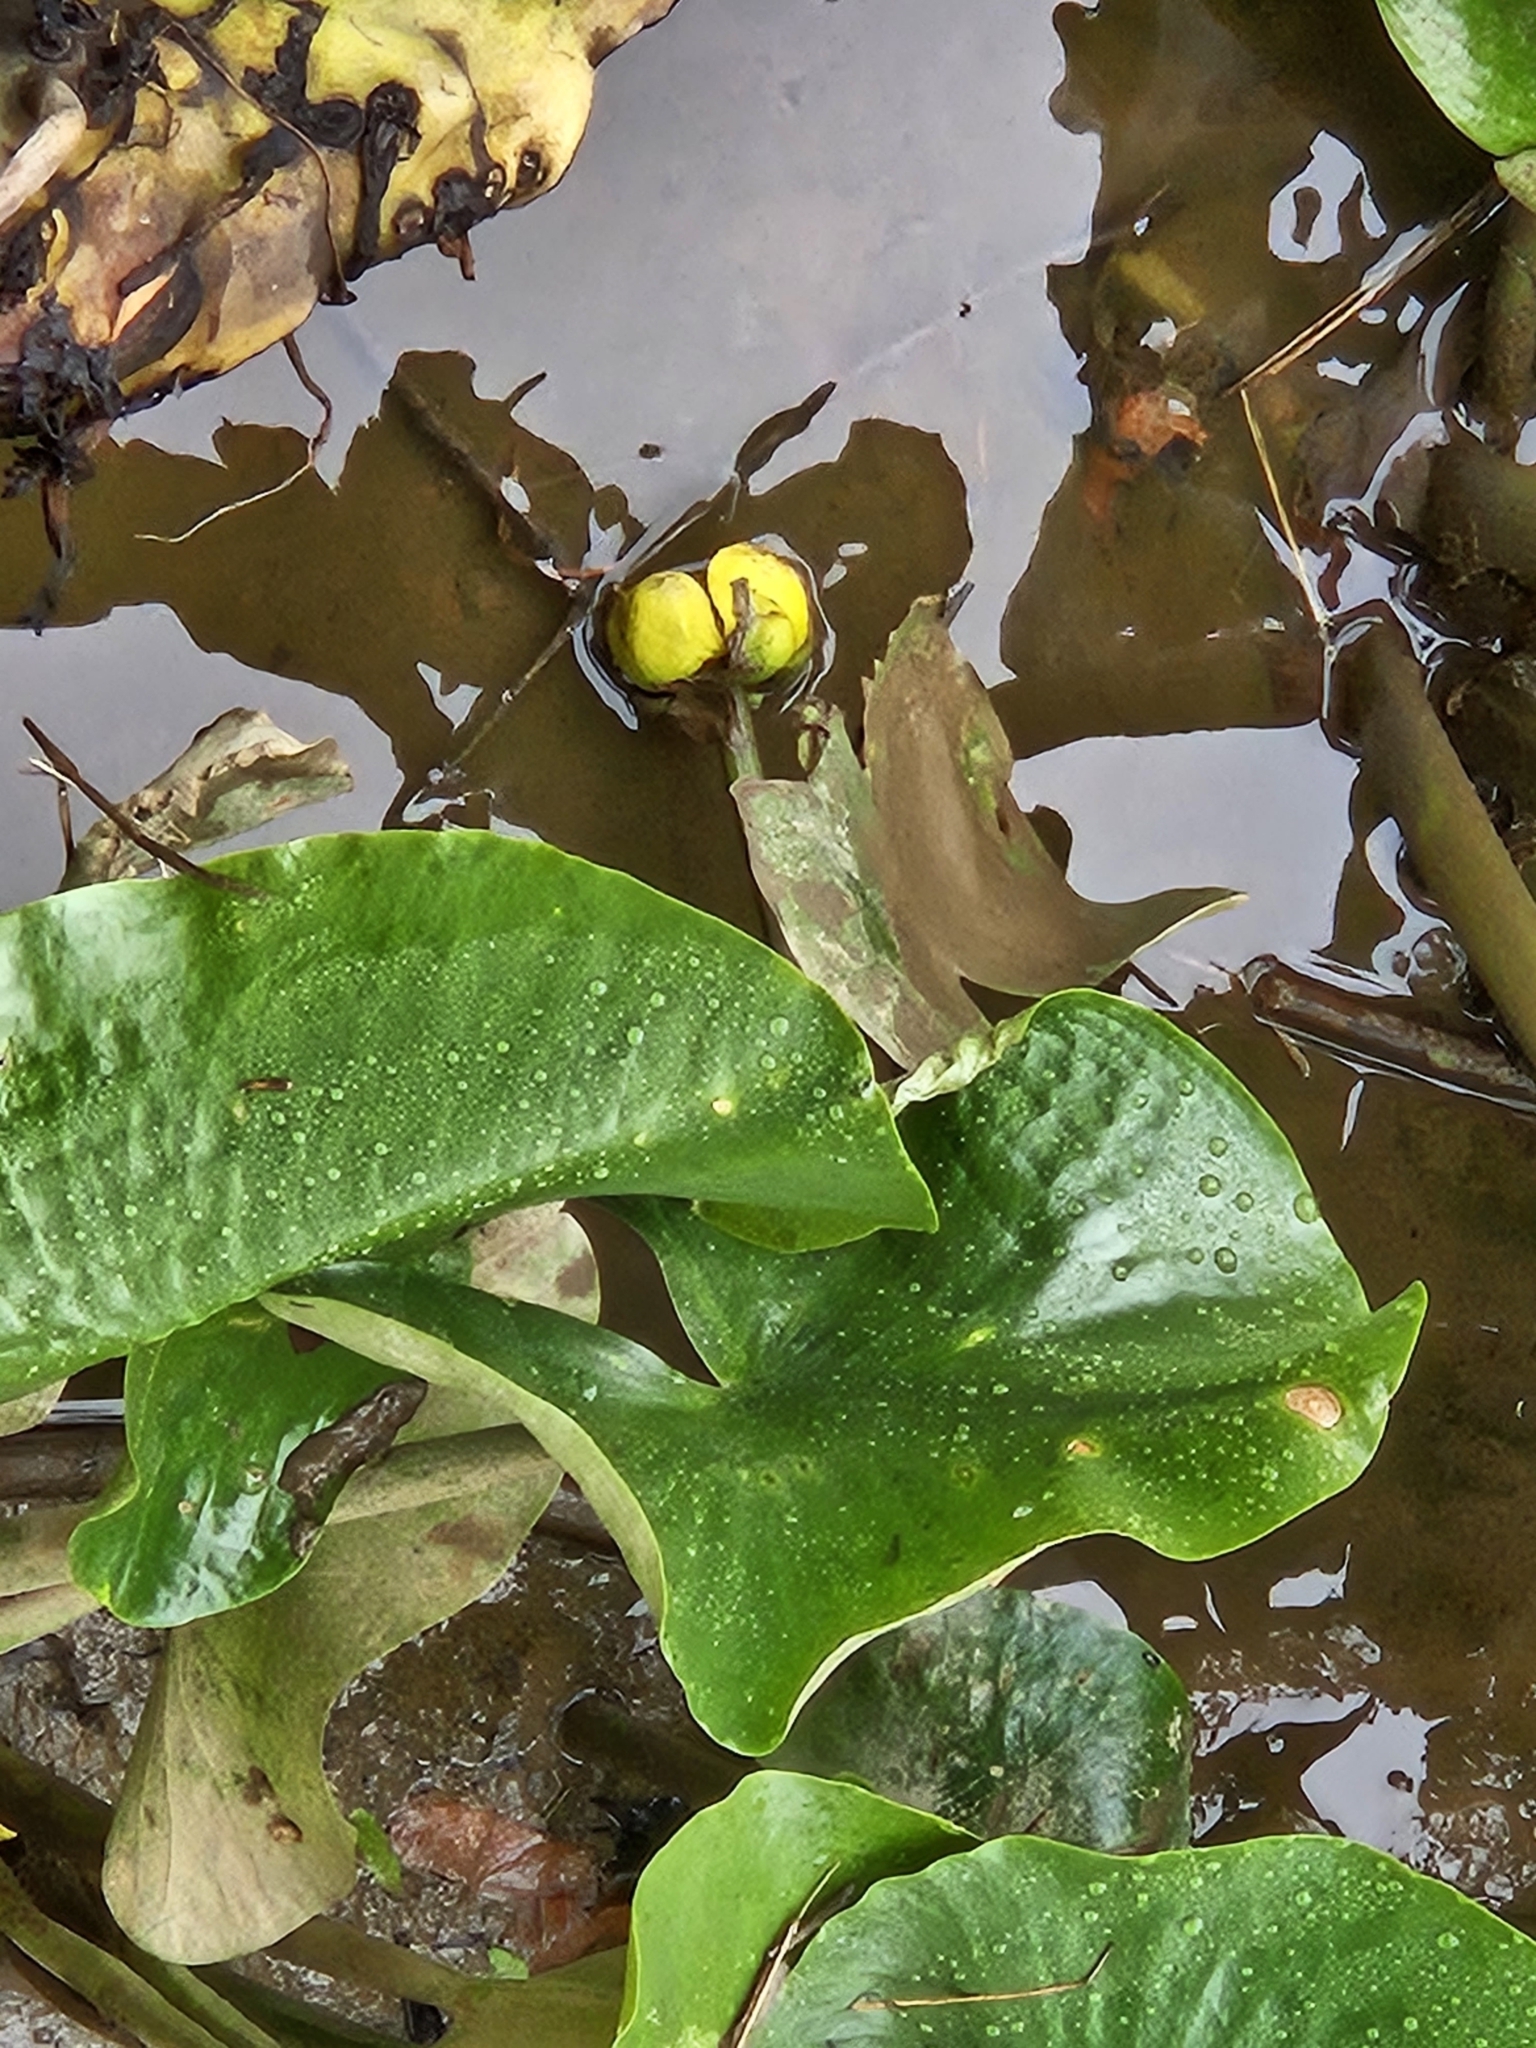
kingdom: Plantae
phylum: Tracheophyta
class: Magnoliopsida
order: Nymphaeales
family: Nymphaeaceae
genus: Nuphar
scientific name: Nuphar advena
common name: Spatter-dock
